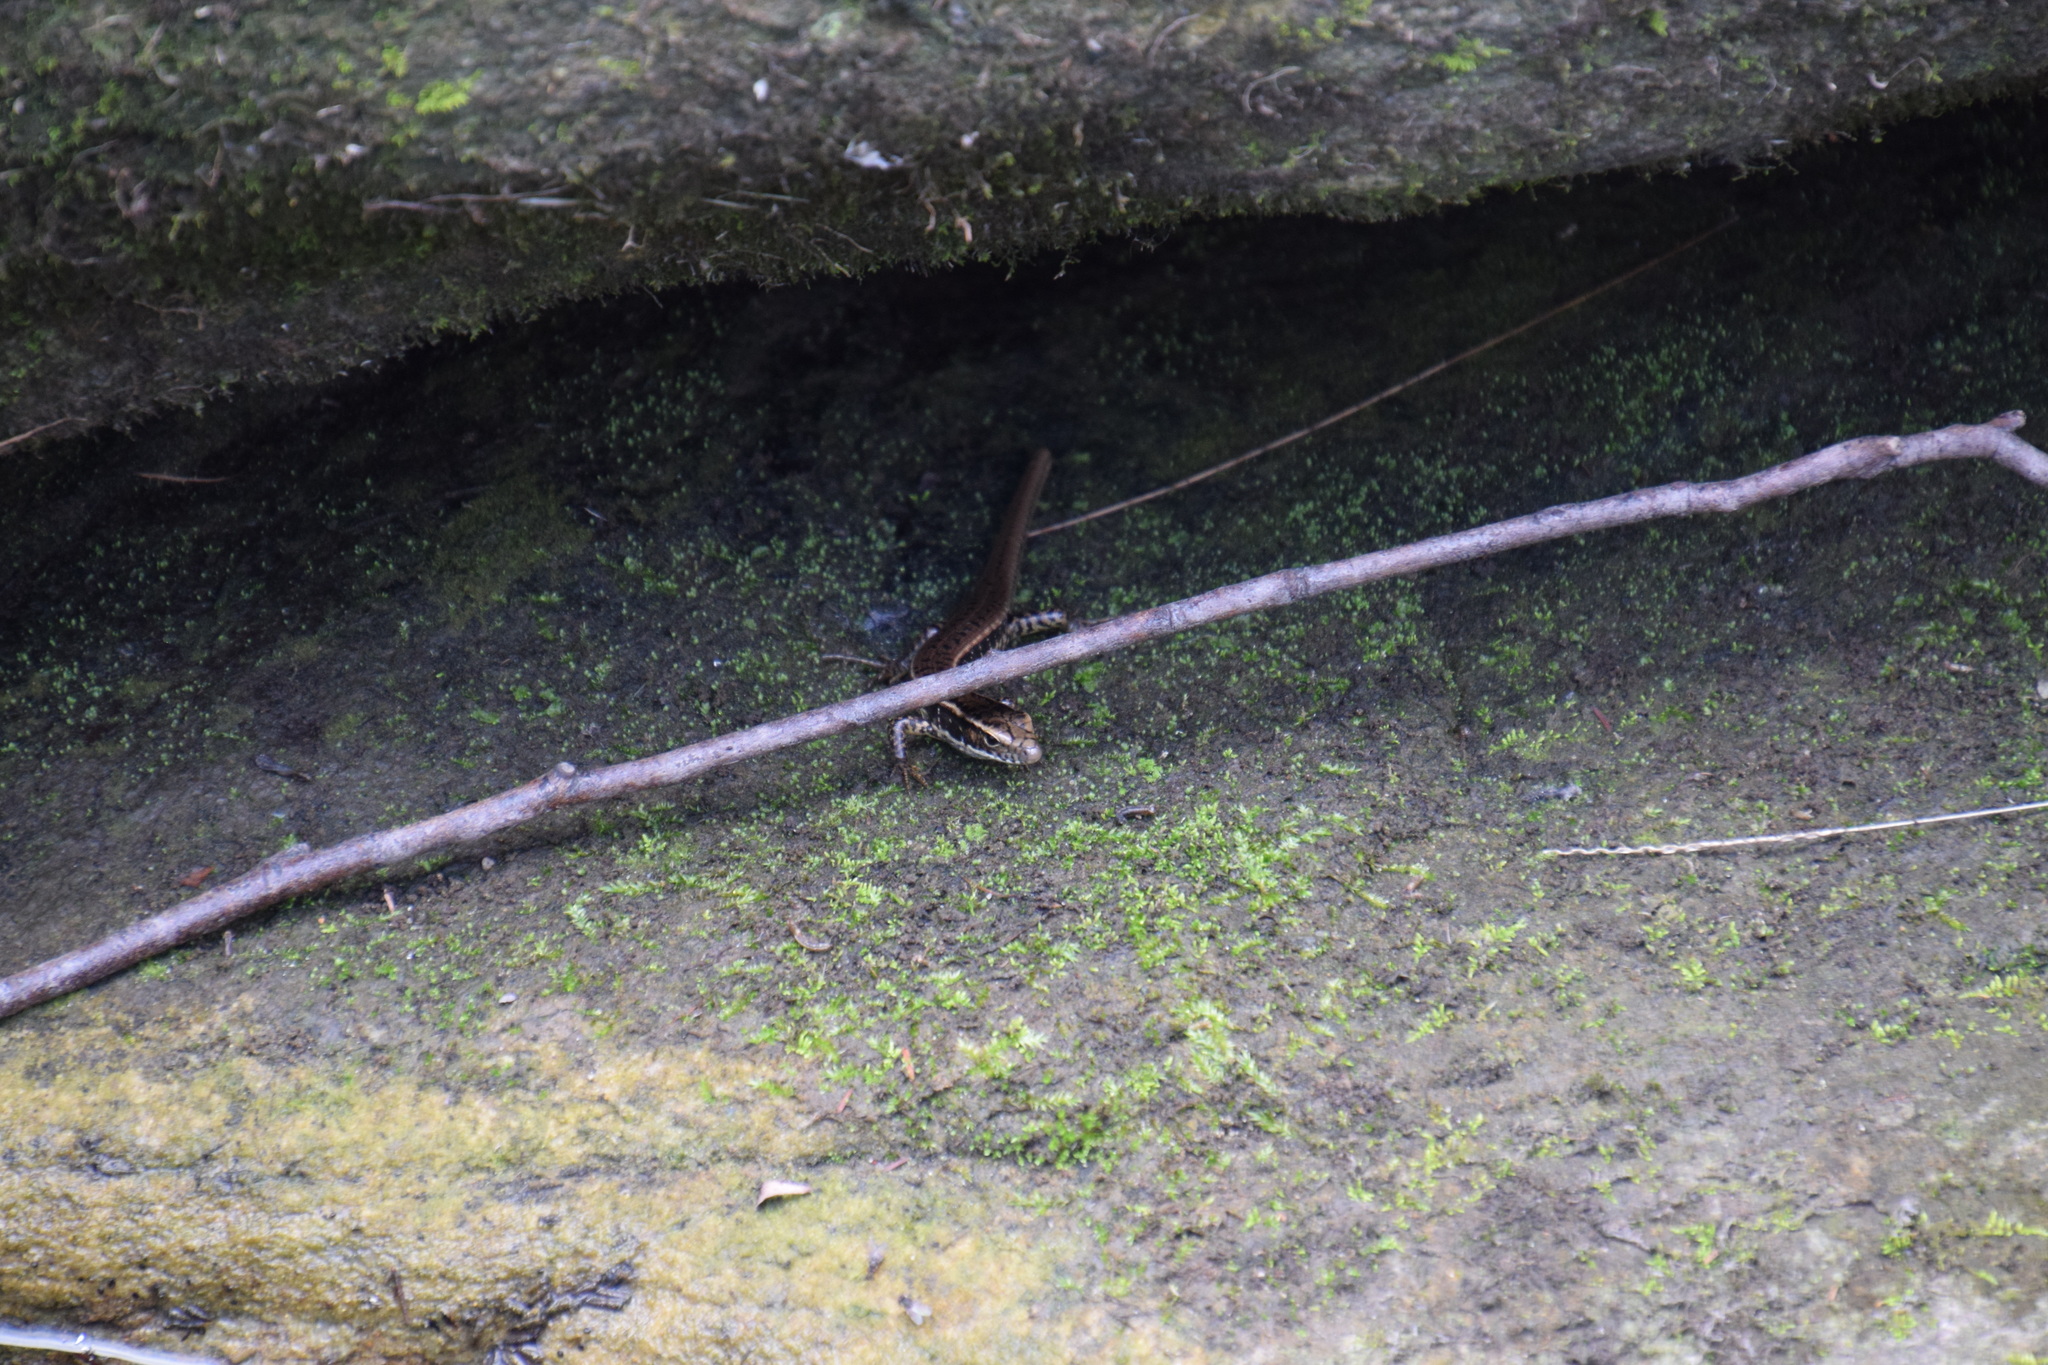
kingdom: Animalia
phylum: Chordata
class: Squamata
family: Scincidae
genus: Eulamprus
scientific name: Eulamprus quoyii
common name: Eastern water skink
